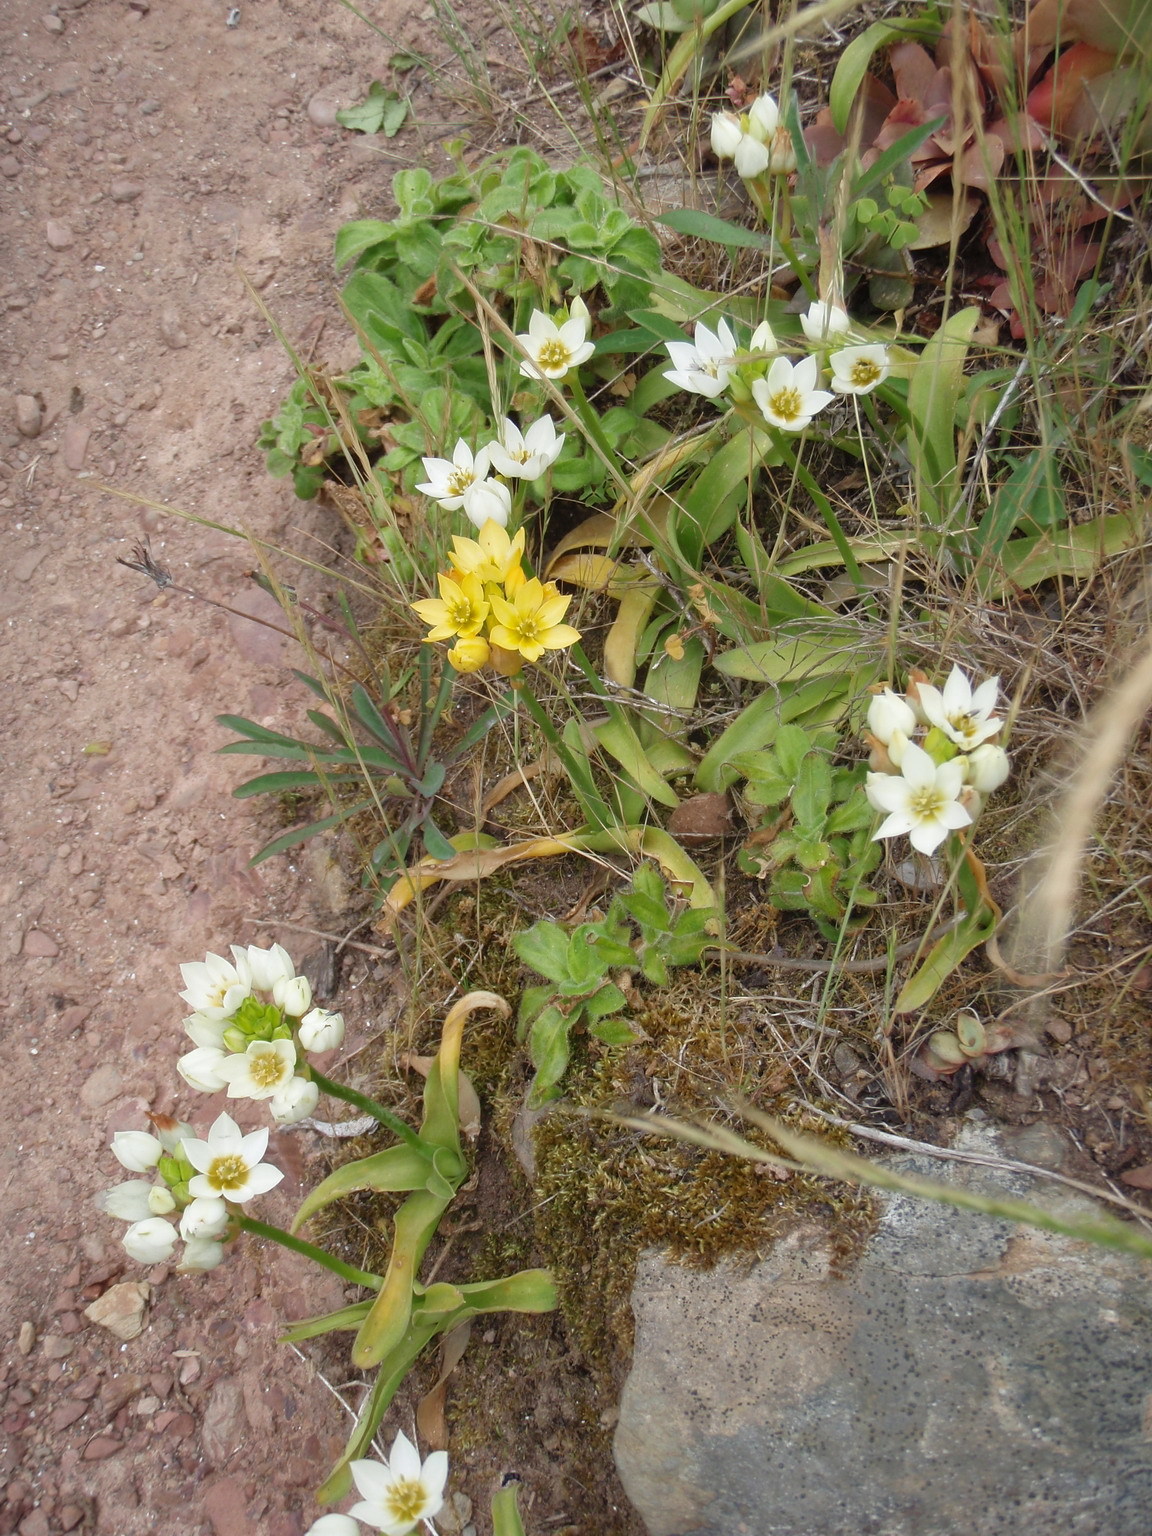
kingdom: Plantae
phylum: Tracheophyta
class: Liliopsida
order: Asparagales
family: Asparagaceae
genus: Ornithogalum
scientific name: Ornithogalum dubium
